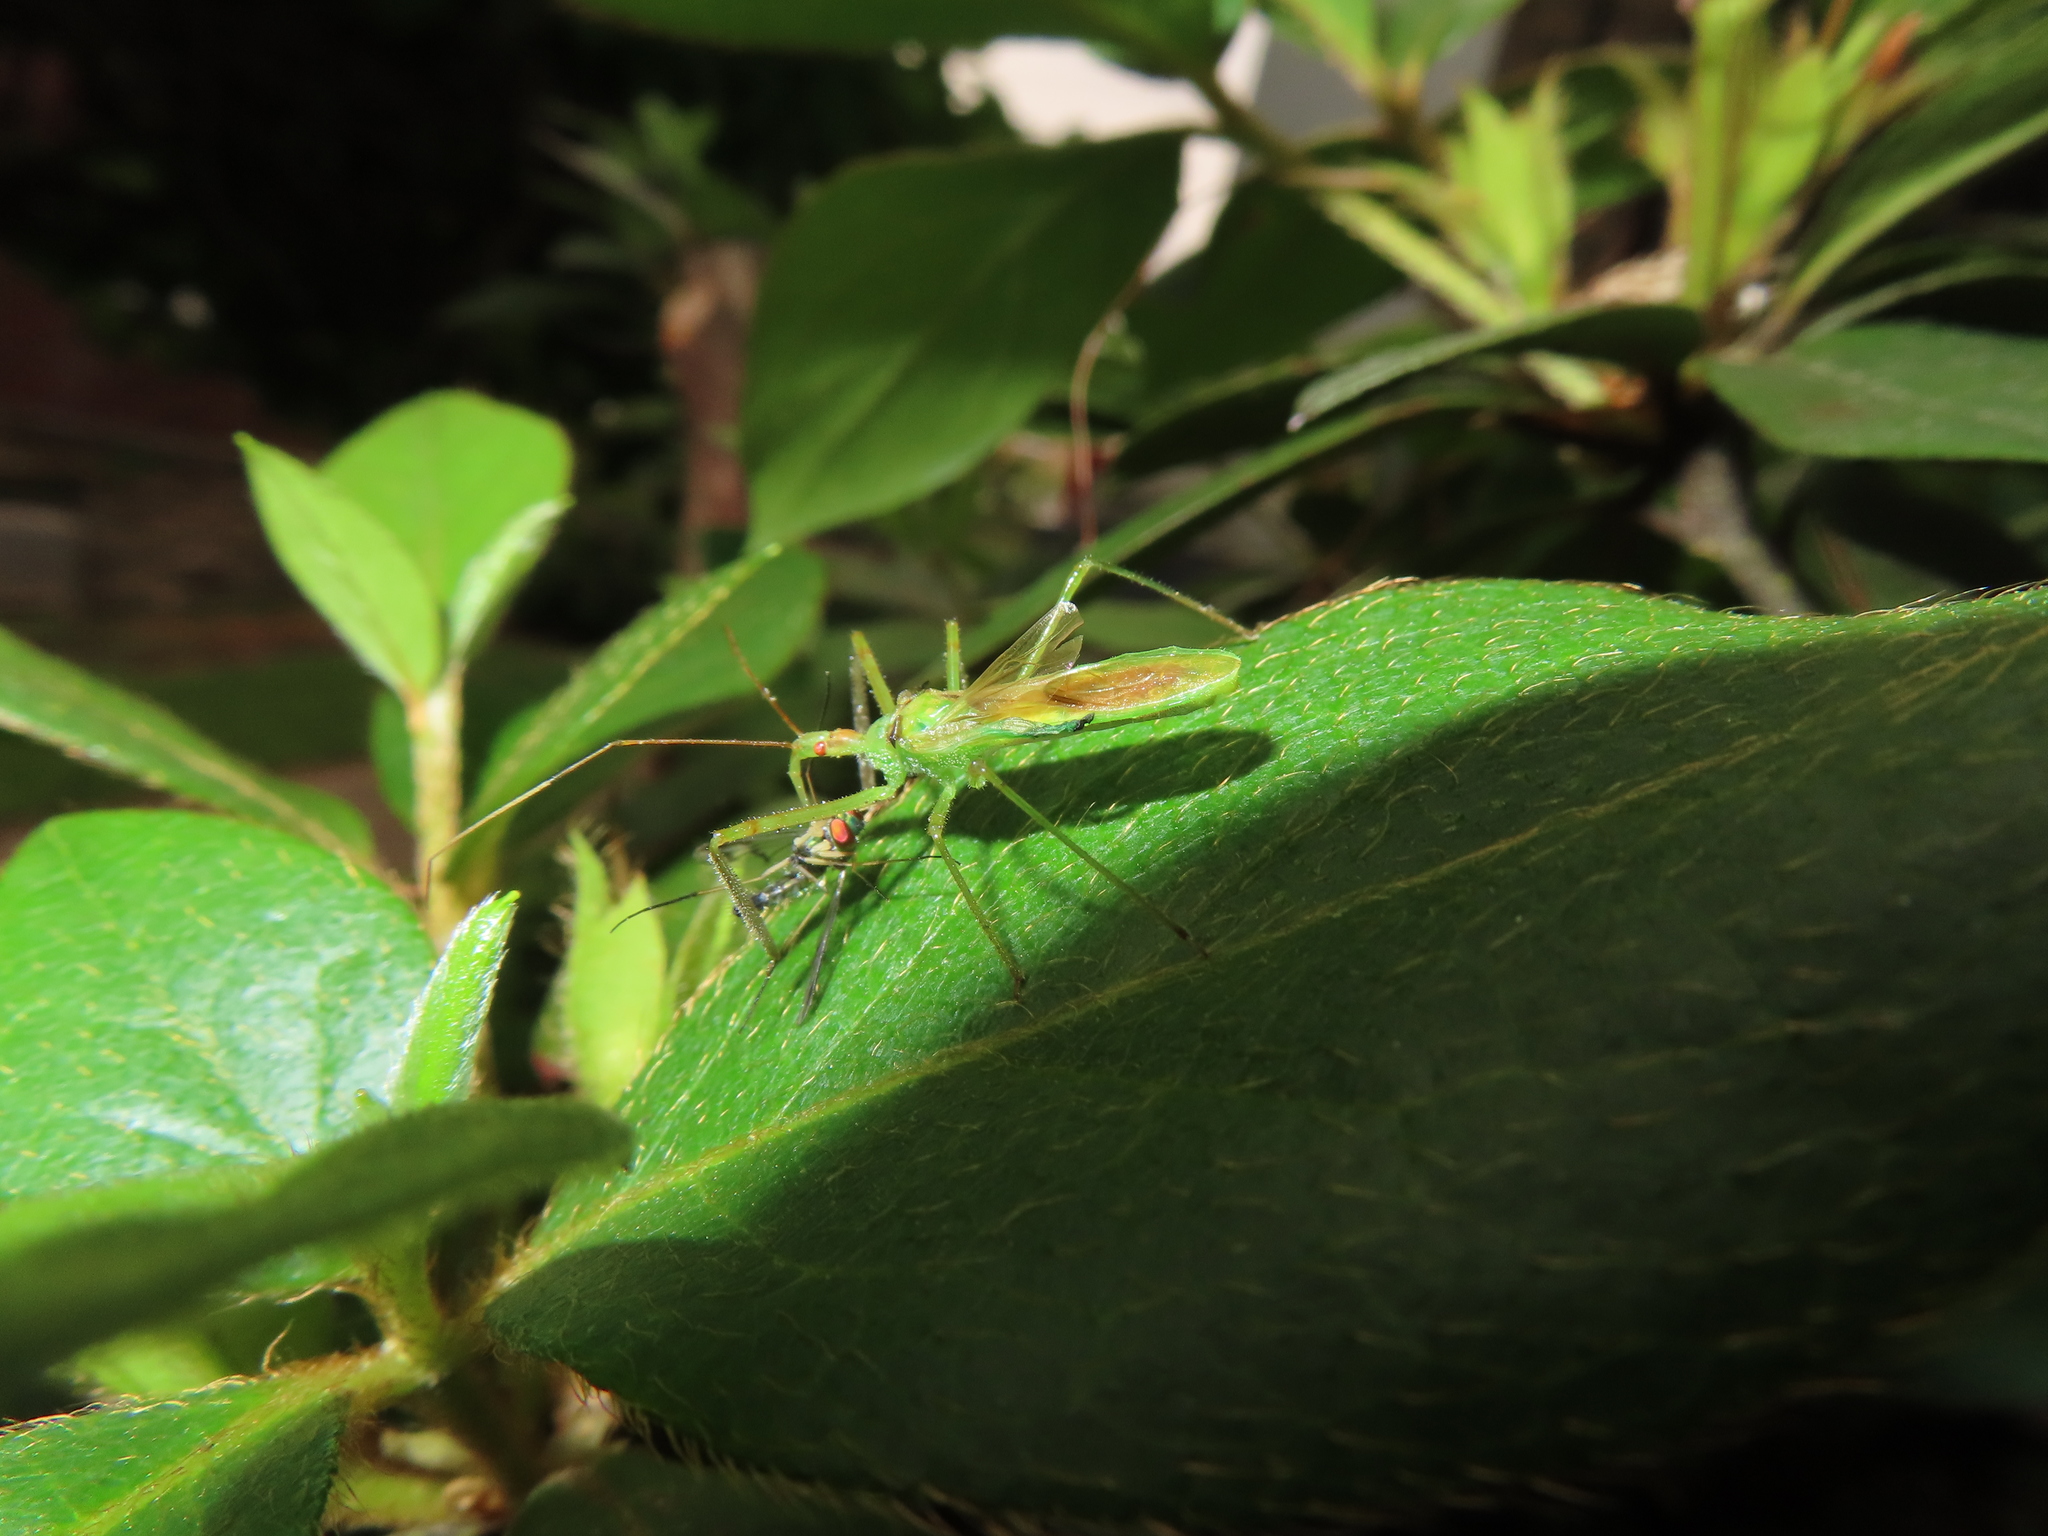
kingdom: Animalia
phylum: Arthropoda
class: Insecta
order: Diptera
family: Dolichopodidae
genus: Condylostylus
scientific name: Condylostylus sipho
